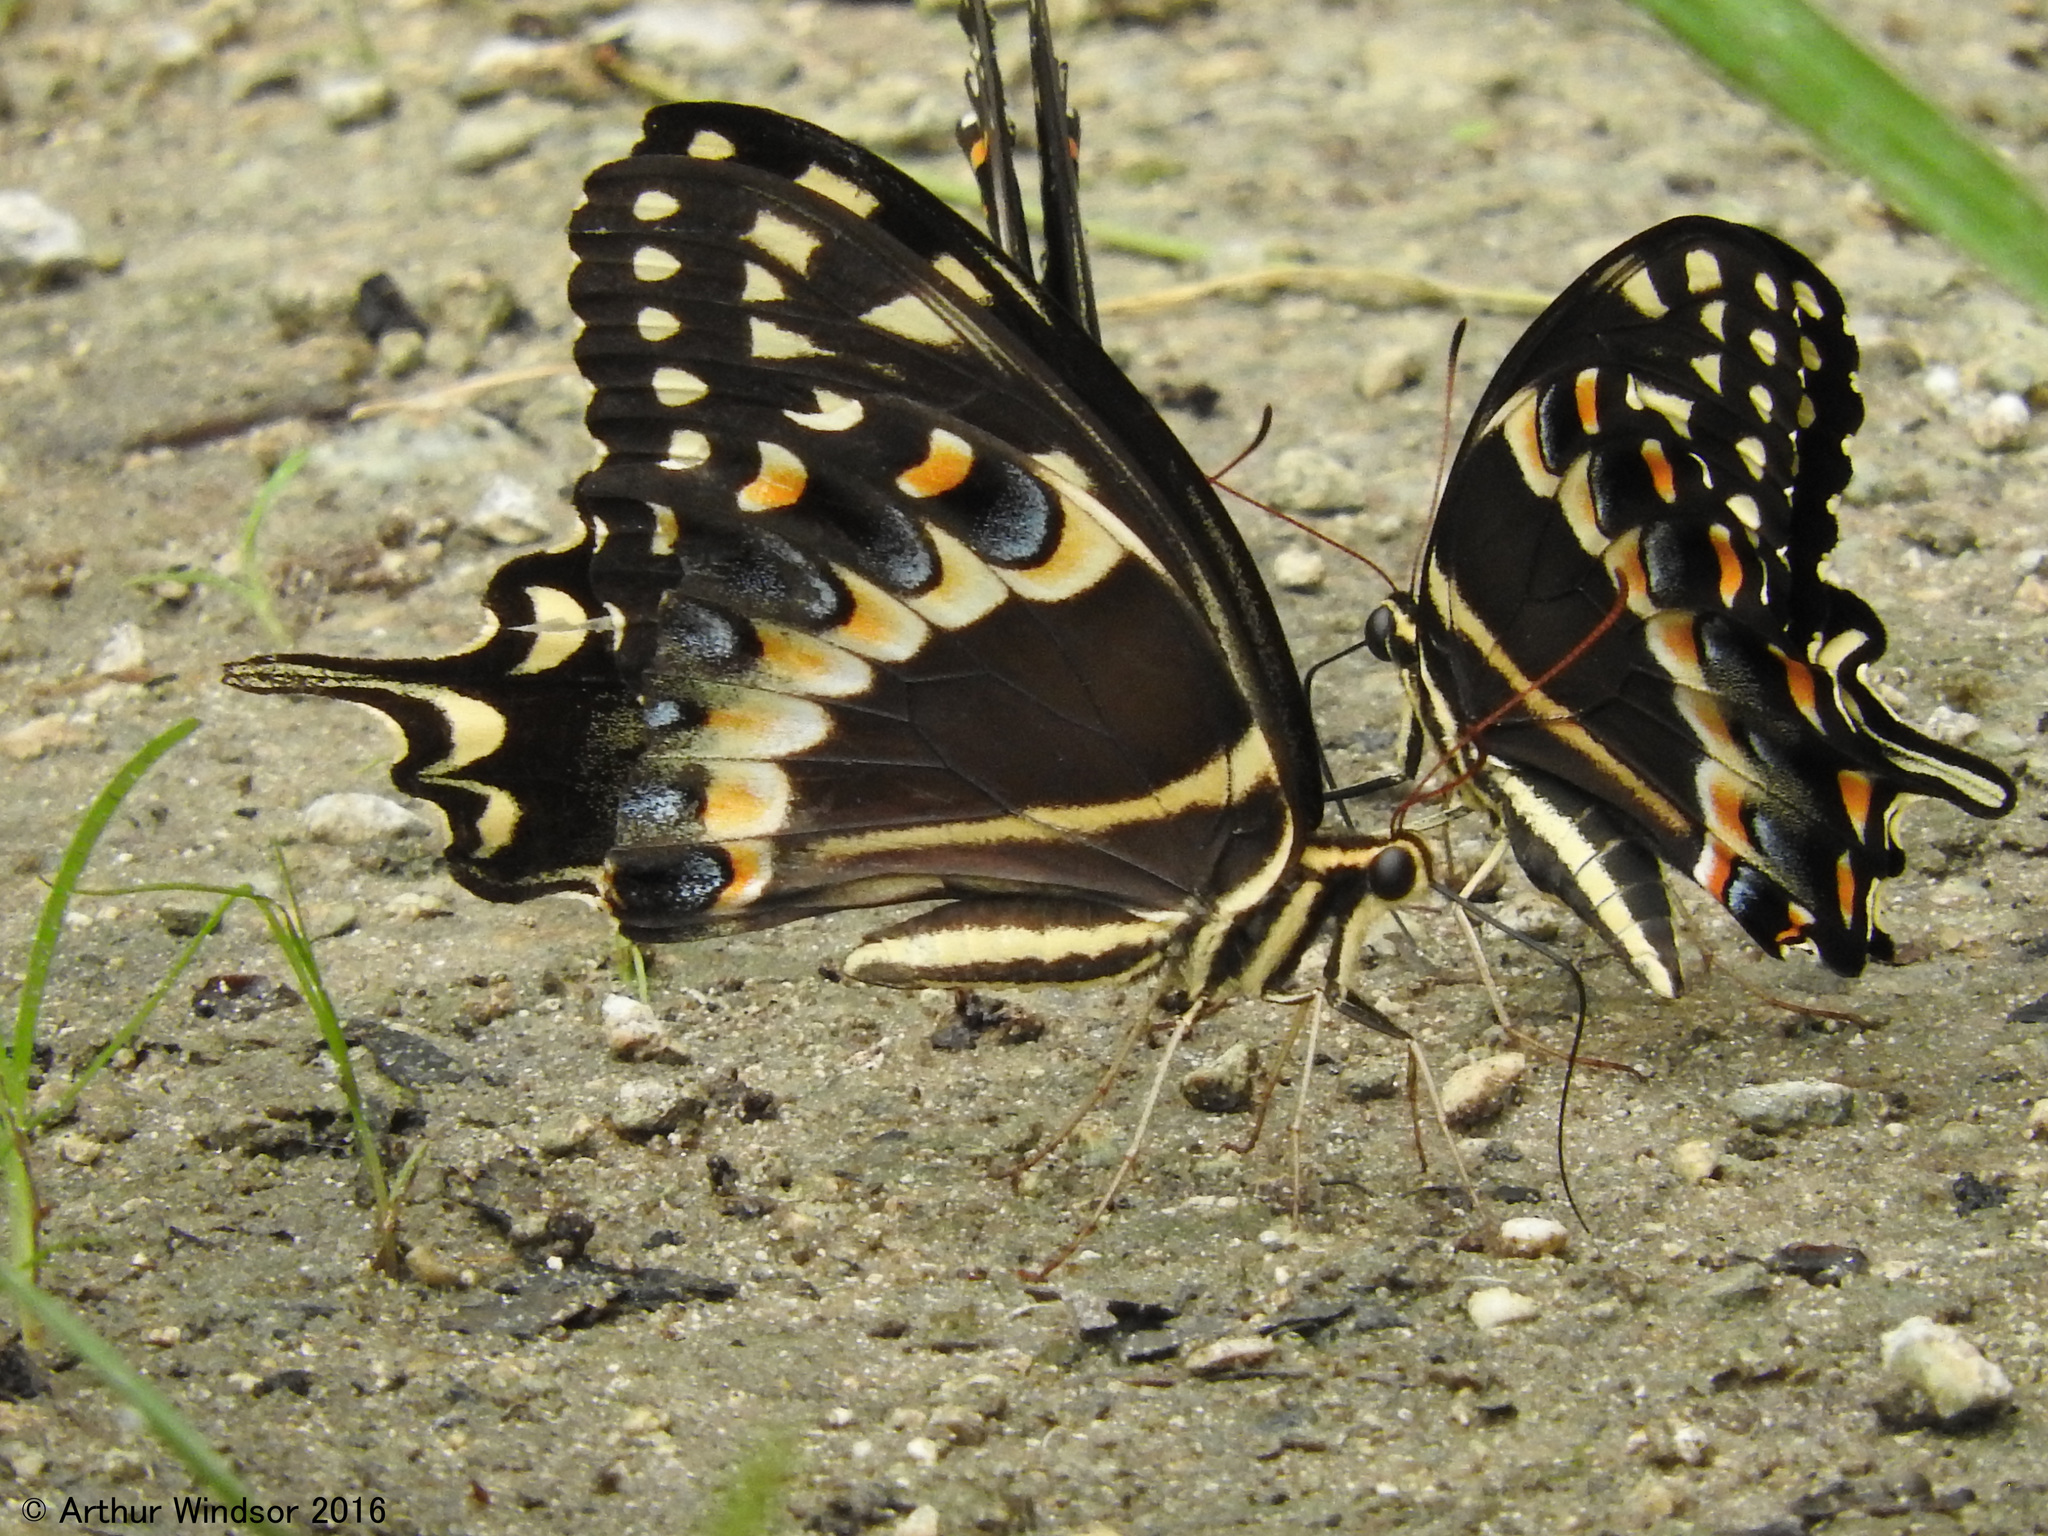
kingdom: Animalia
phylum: Arthropoda
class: Insecta
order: Lepidoptera
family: Papilionidae
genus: Papilio
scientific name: Papilio palamedes
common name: Palamedes swallowtail
